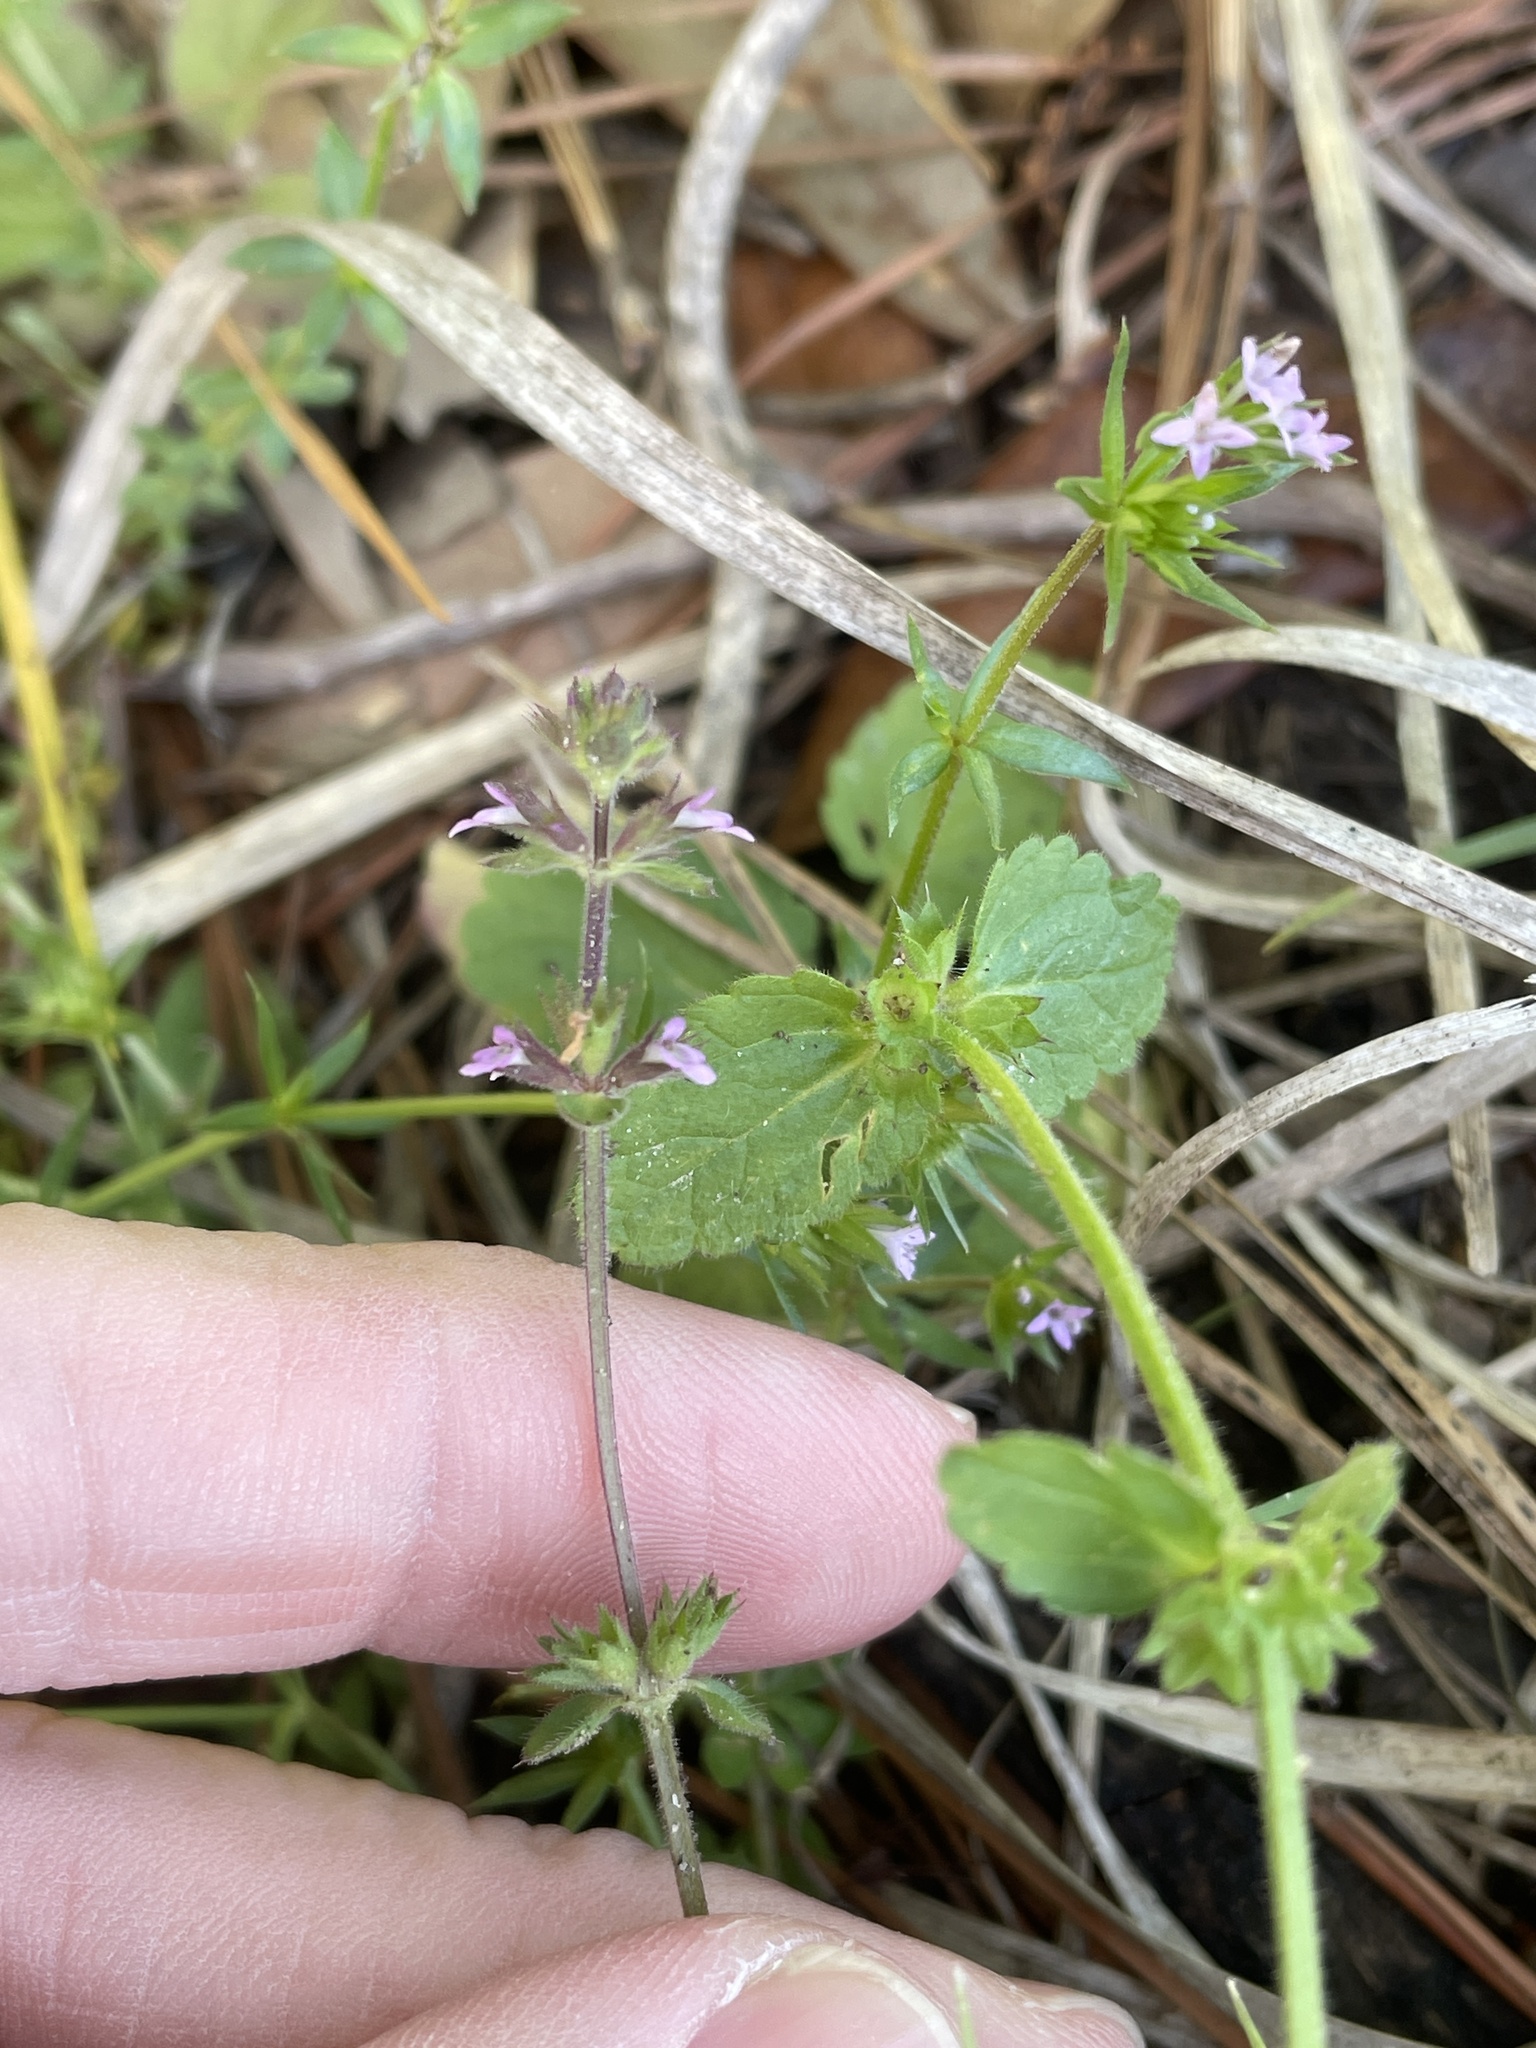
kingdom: Plantae
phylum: Tracheophyta
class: Magnoliopsida
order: Lamiales
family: Lamiaceae
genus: Stachys
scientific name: Stachys
